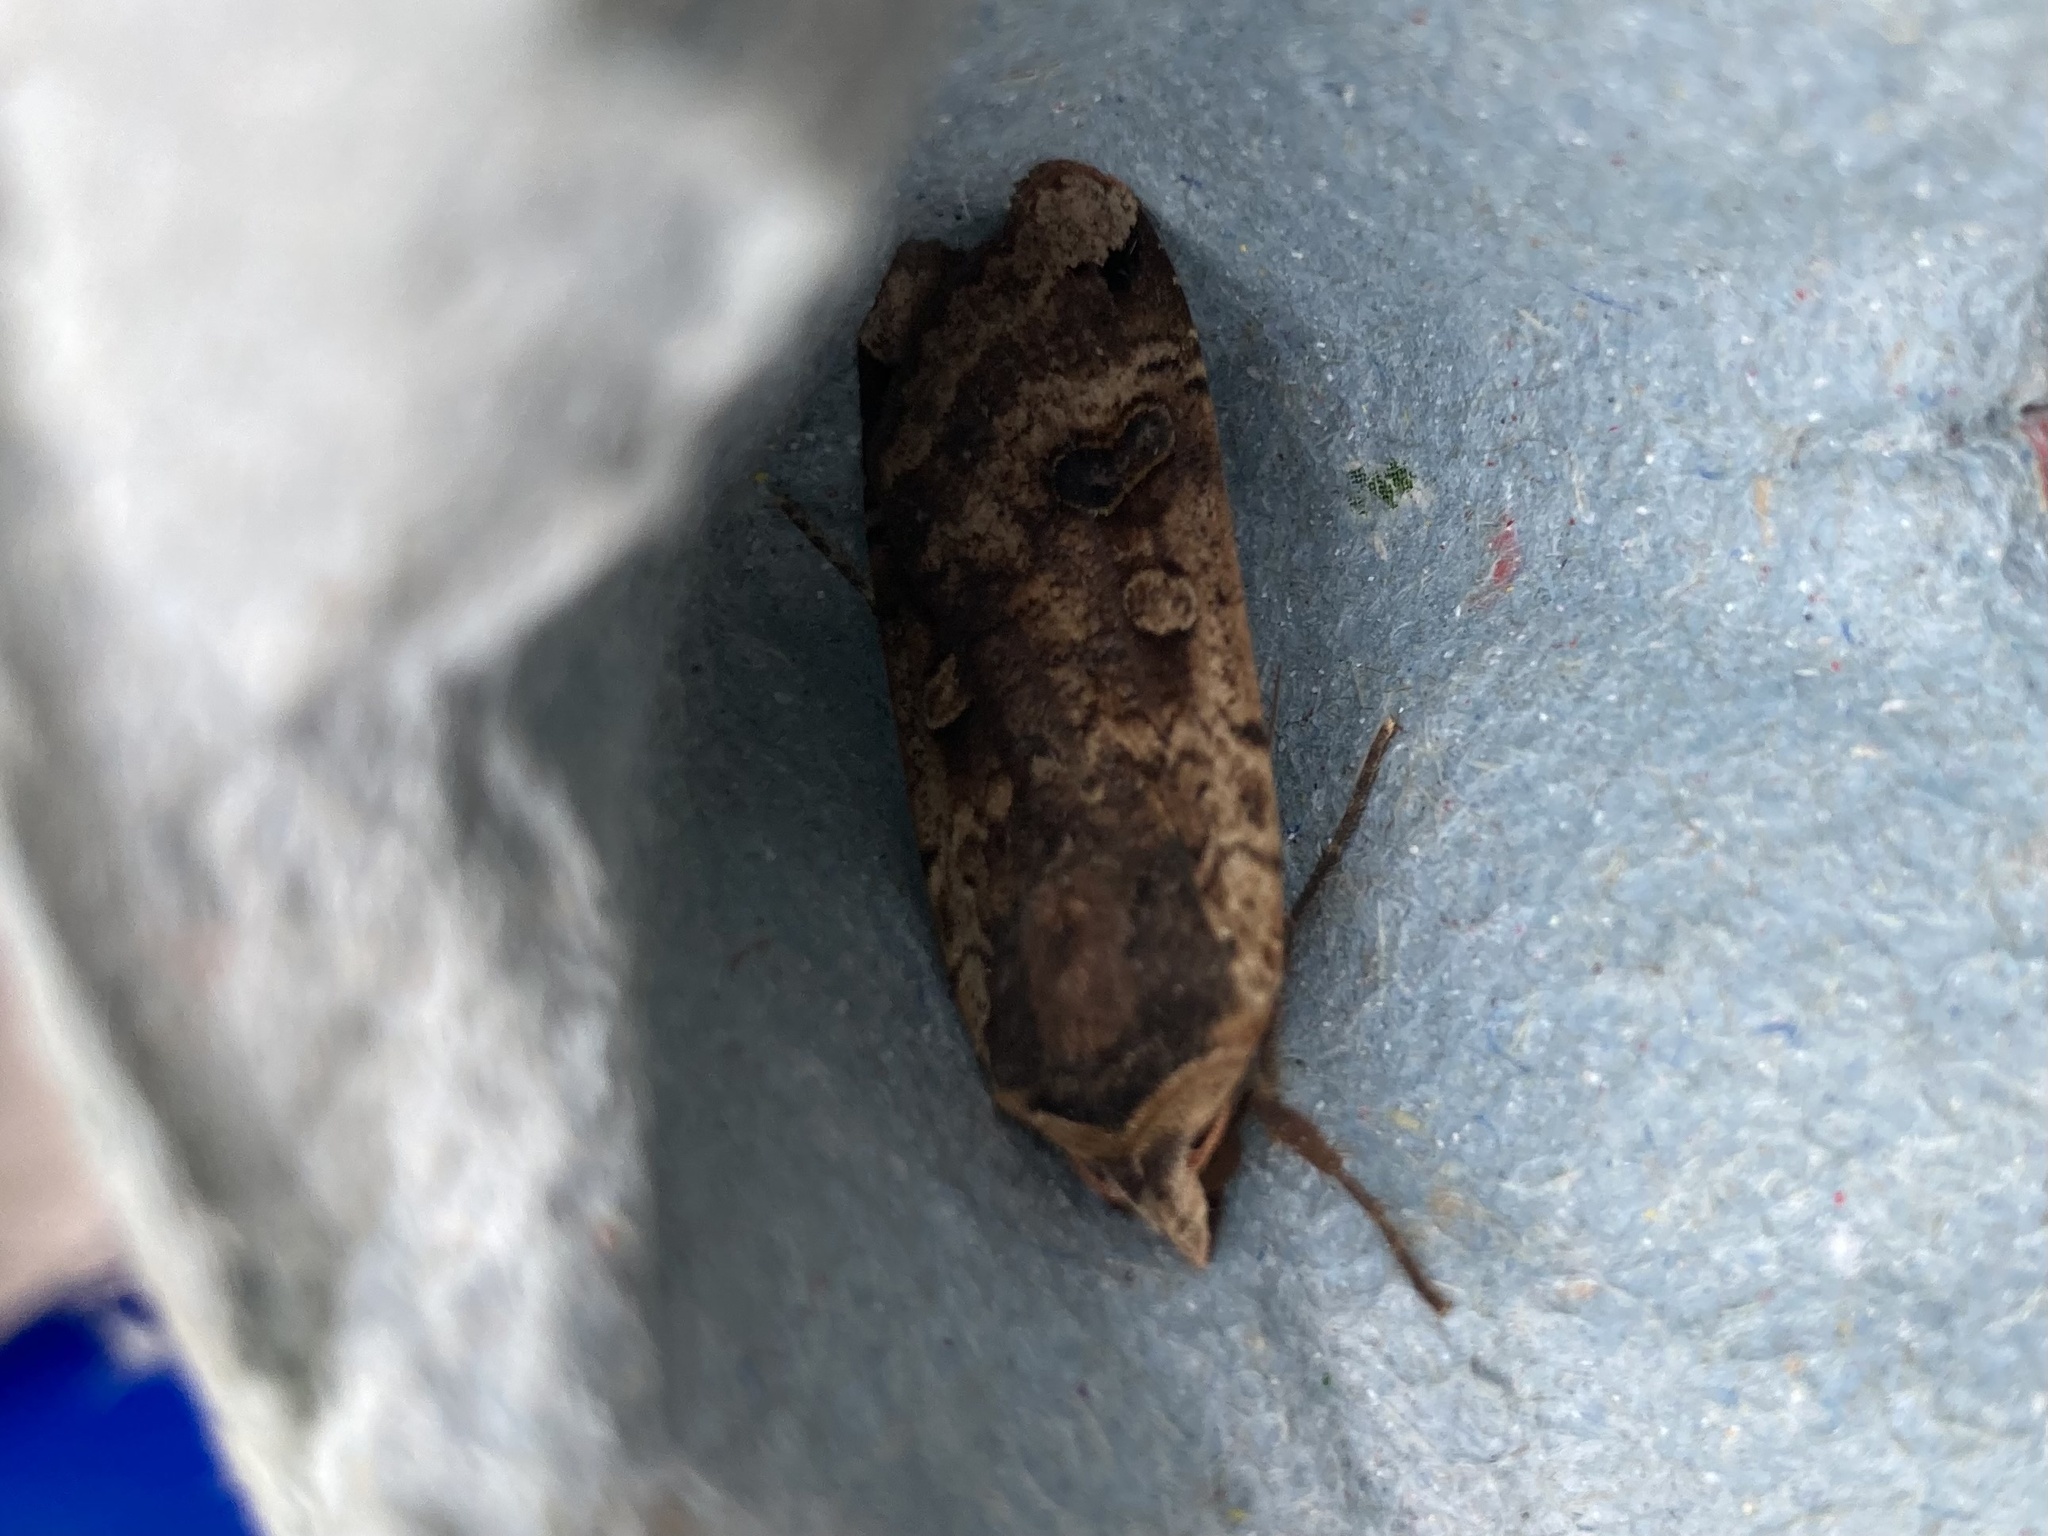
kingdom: Animalia
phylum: Arthropoda
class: Insecta
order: Lepidoptera
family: Noctuidae
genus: Noctua
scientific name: Noctua pronuba
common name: Large yellow underwing
